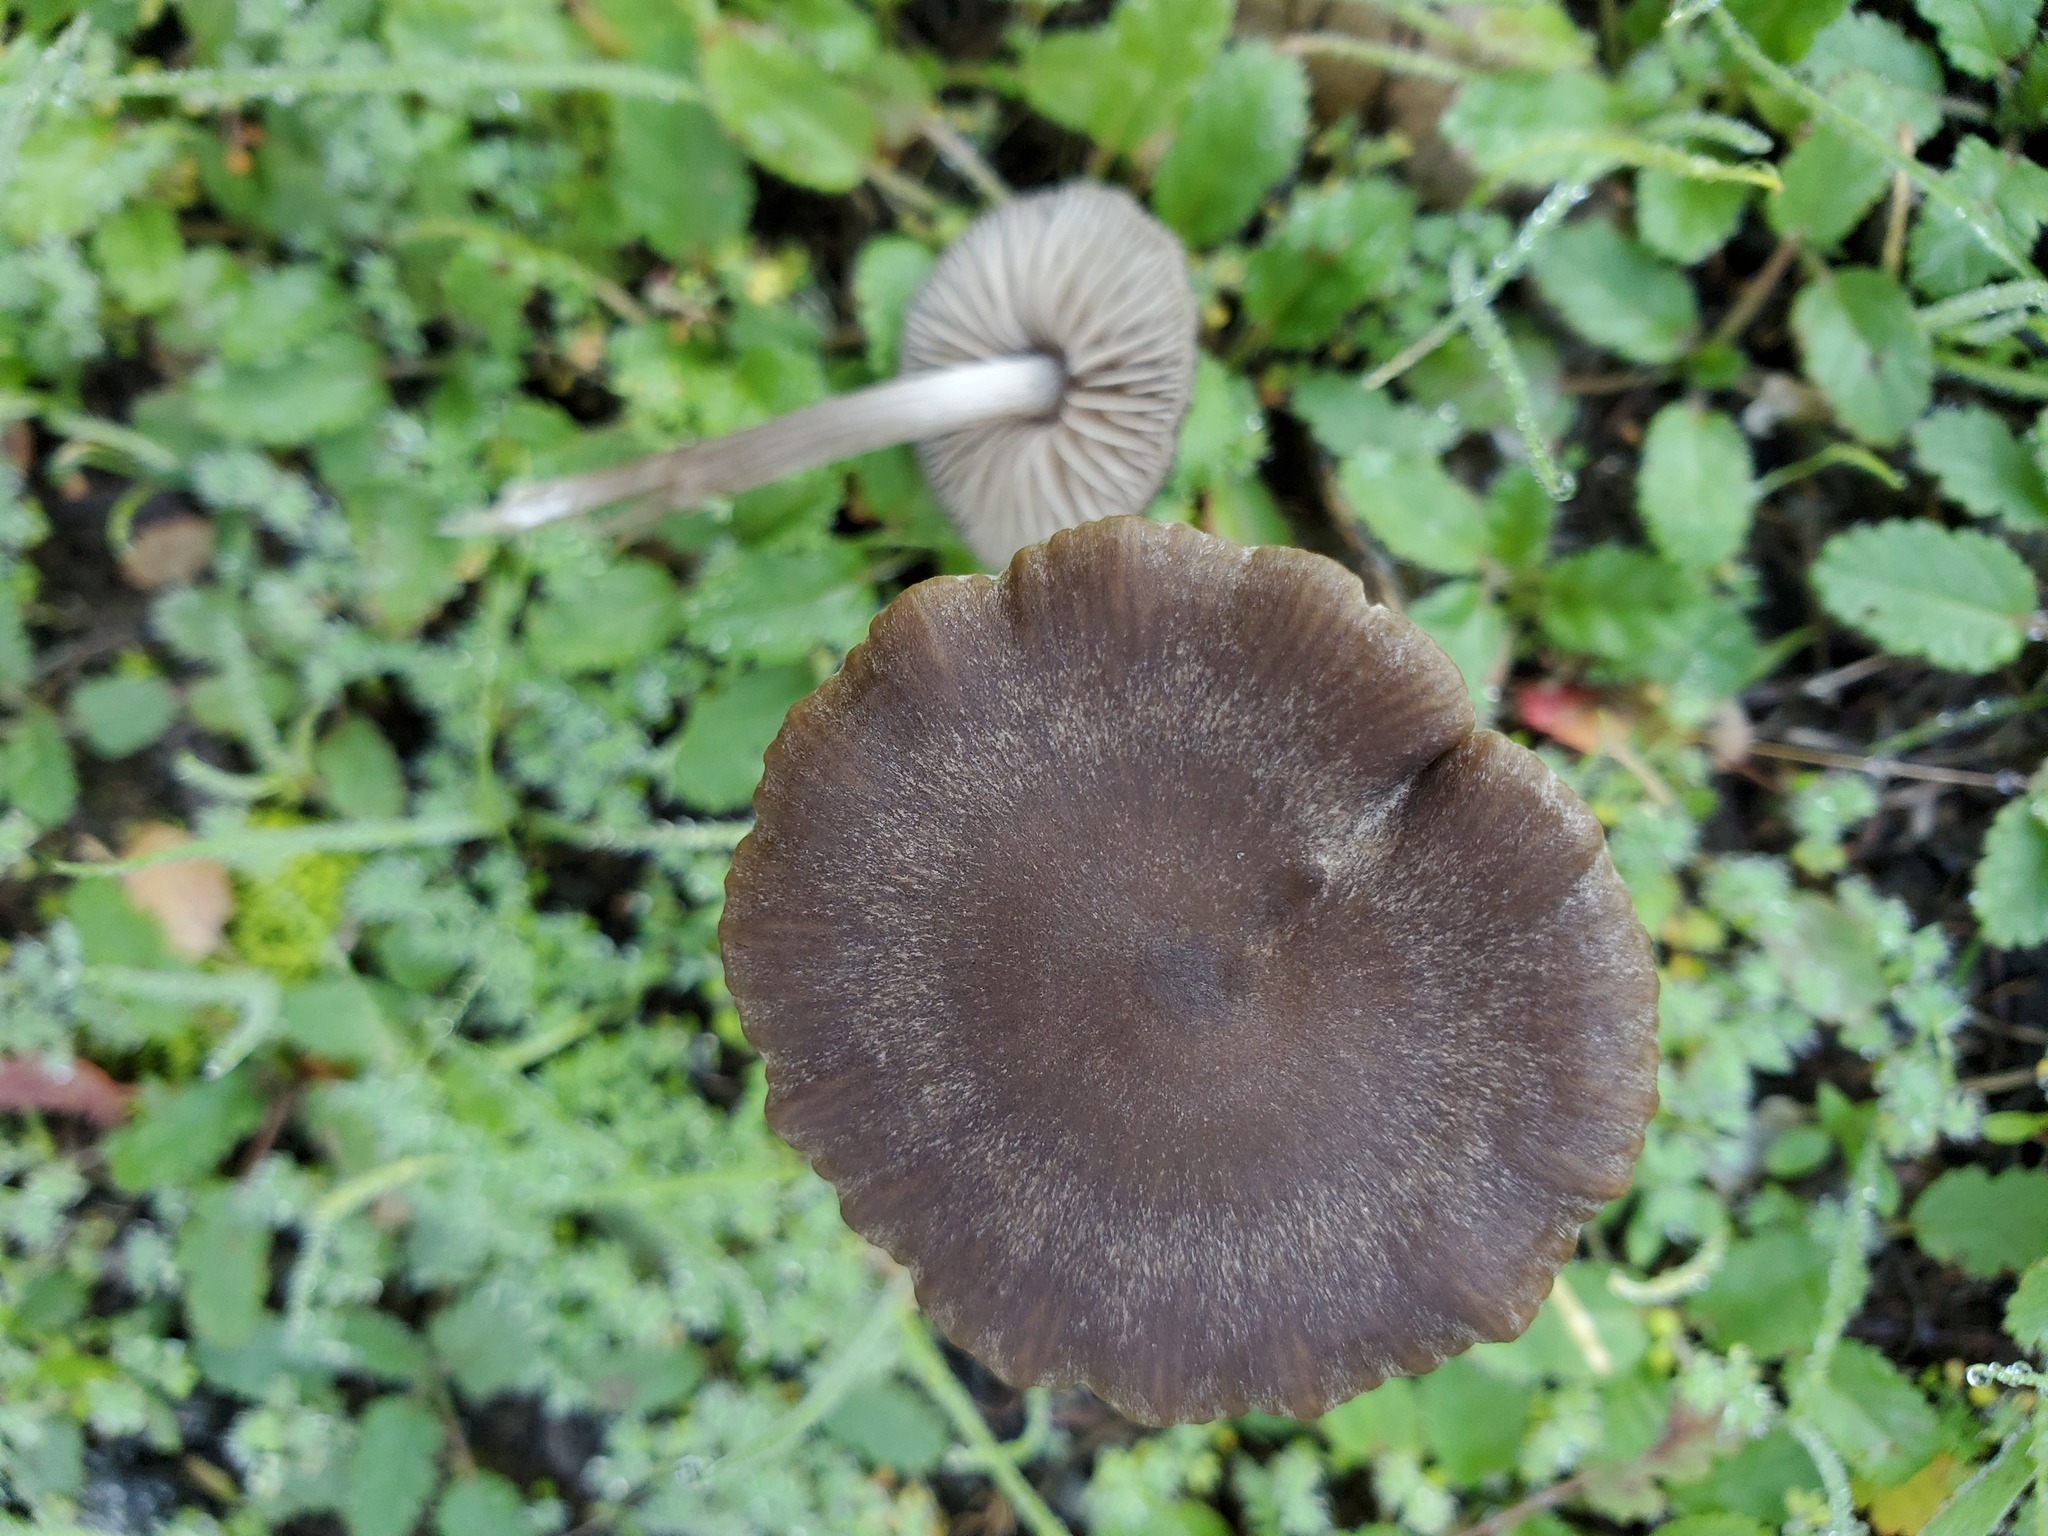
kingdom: Fungi
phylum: Basidiomycota
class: Agaricomycetes
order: Agaricales
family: Entolomataceae
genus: Entoloma
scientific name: Entoloma sericeum
